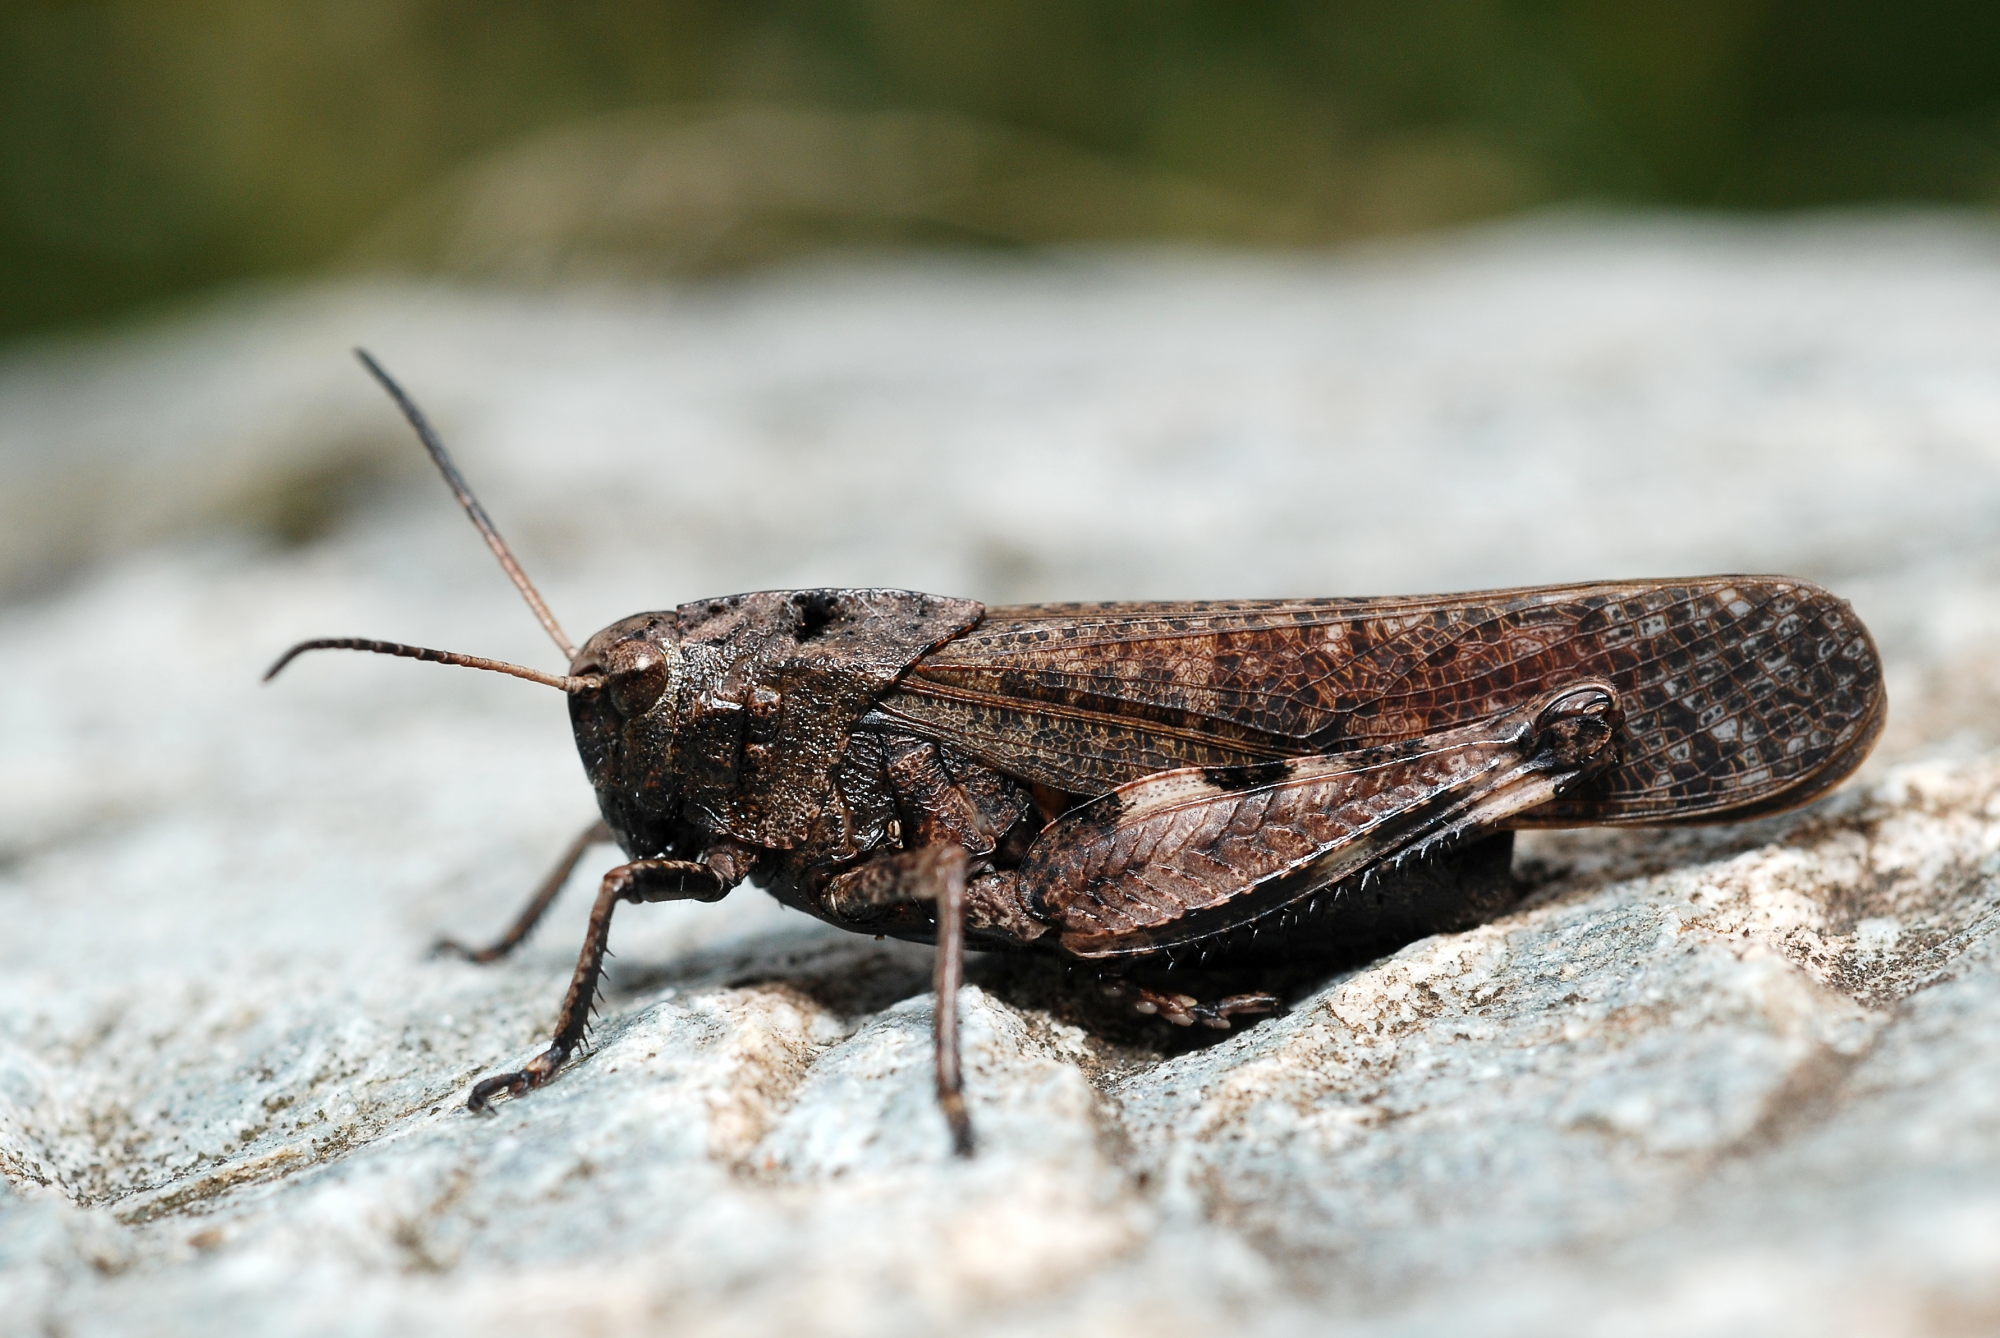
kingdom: Animalia
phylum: Arthropoda
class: Insecta
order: Orthoptera
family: Acrididae
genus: Psophus
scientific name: Psophus stridulus
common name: Rattle grasshopper
